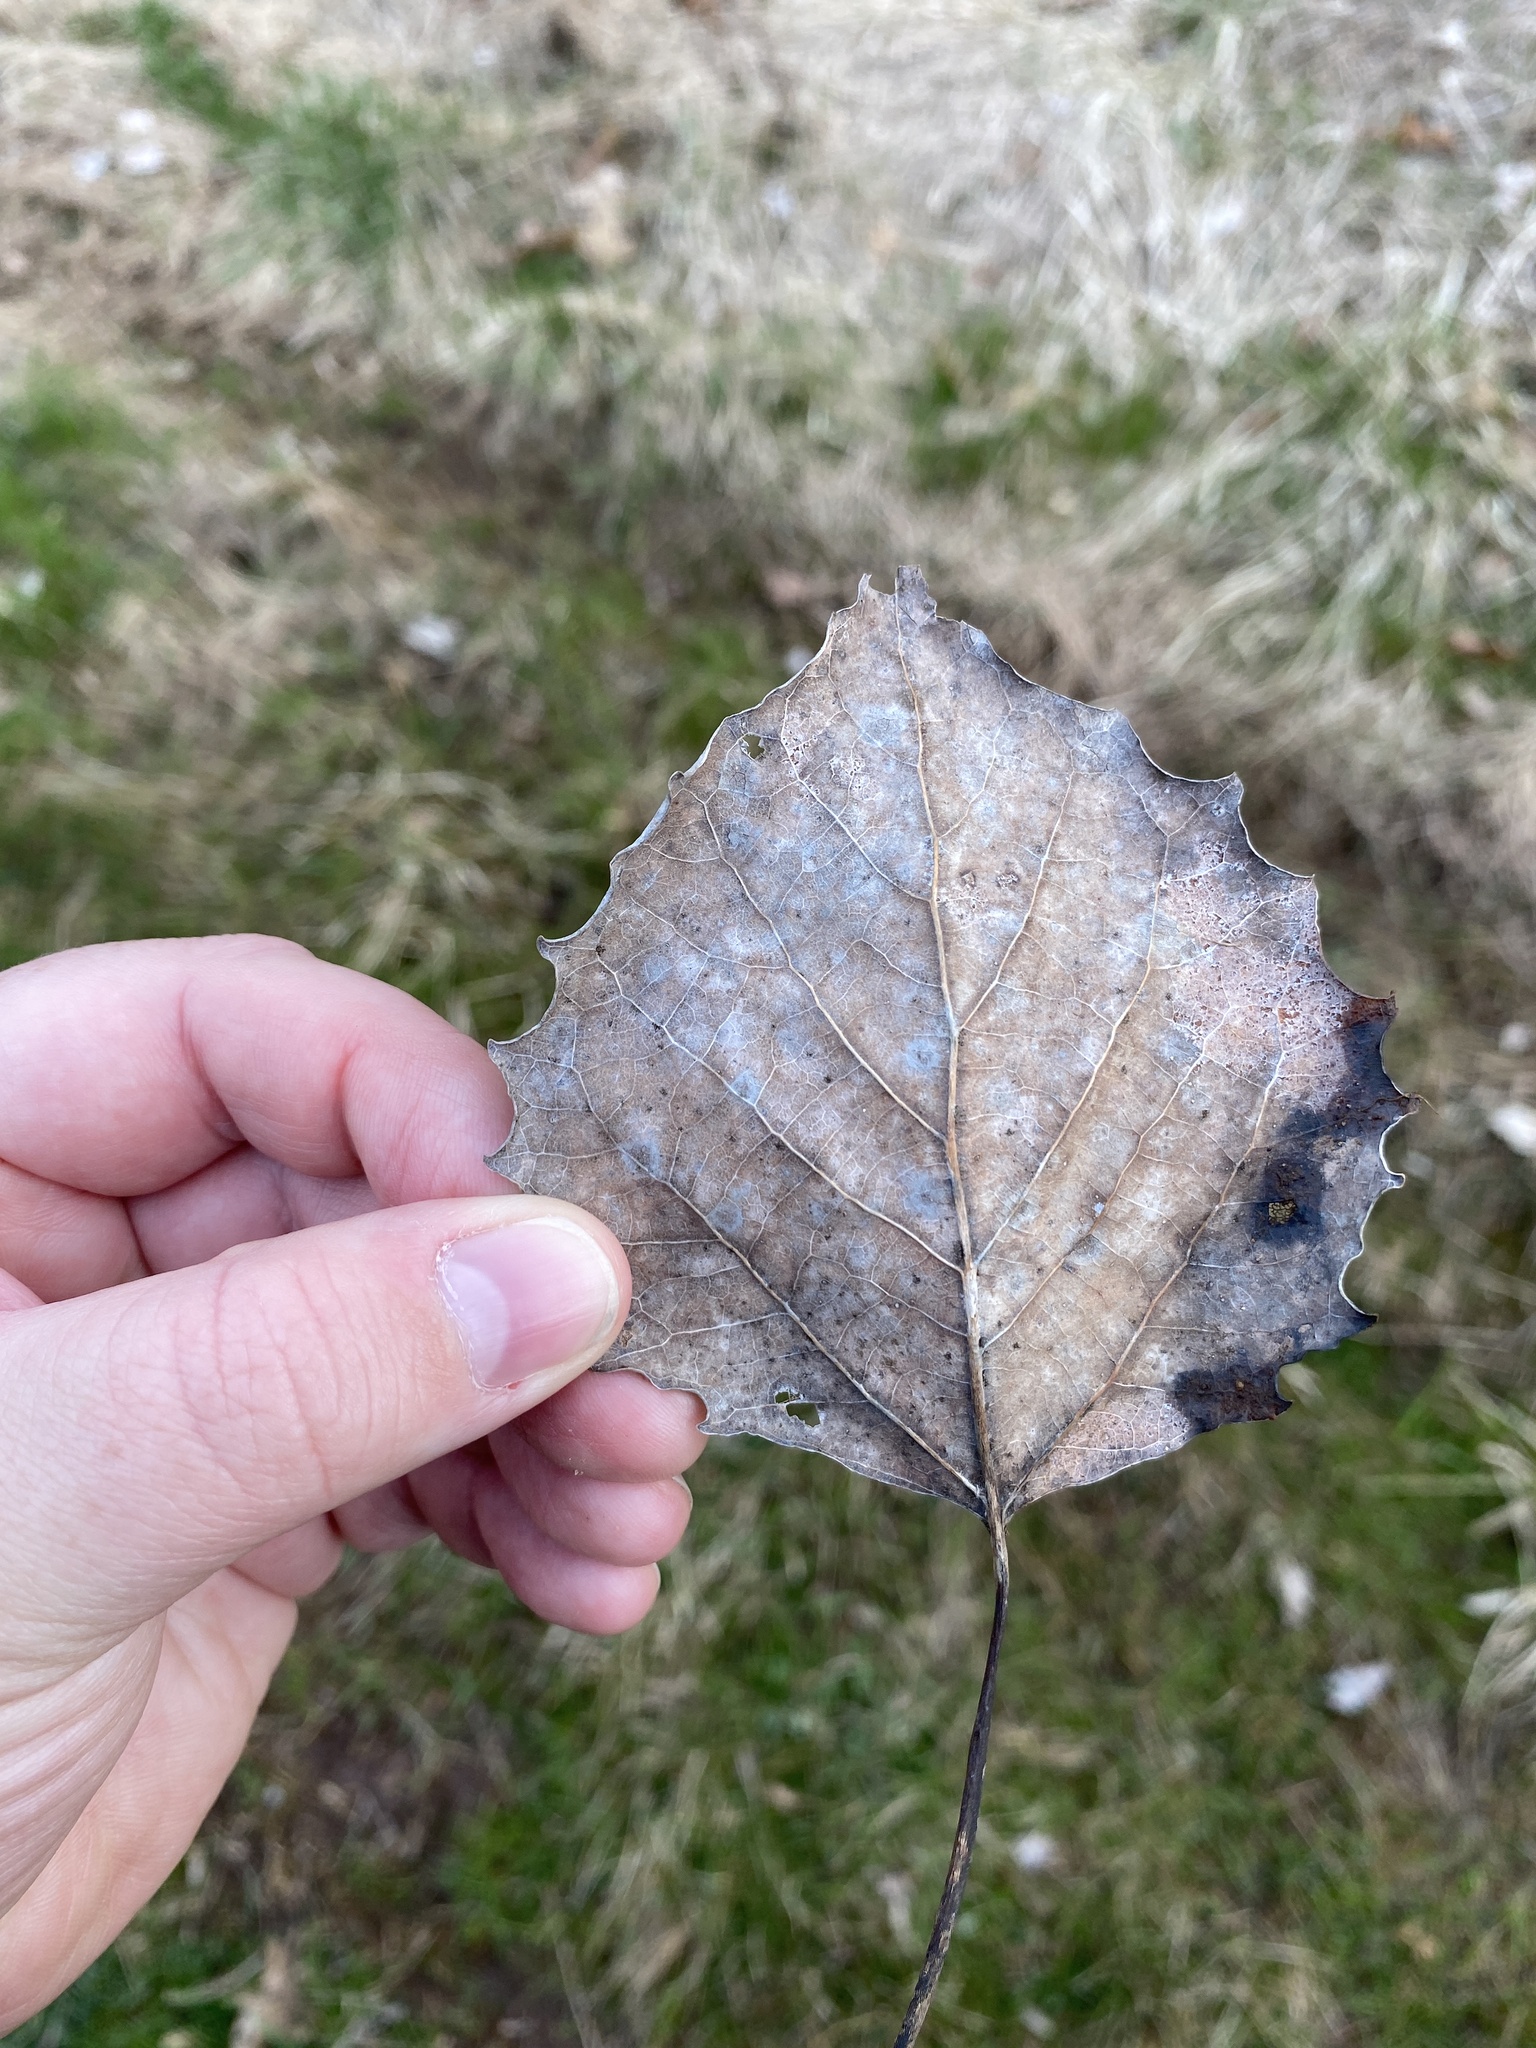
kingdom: Plantae
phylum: Tracheophyta
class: Magnoliopsida
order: Malpighiales
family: Salicaceae
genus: Populus
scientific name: Populus grandidentata
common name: Bigtooth aspen
